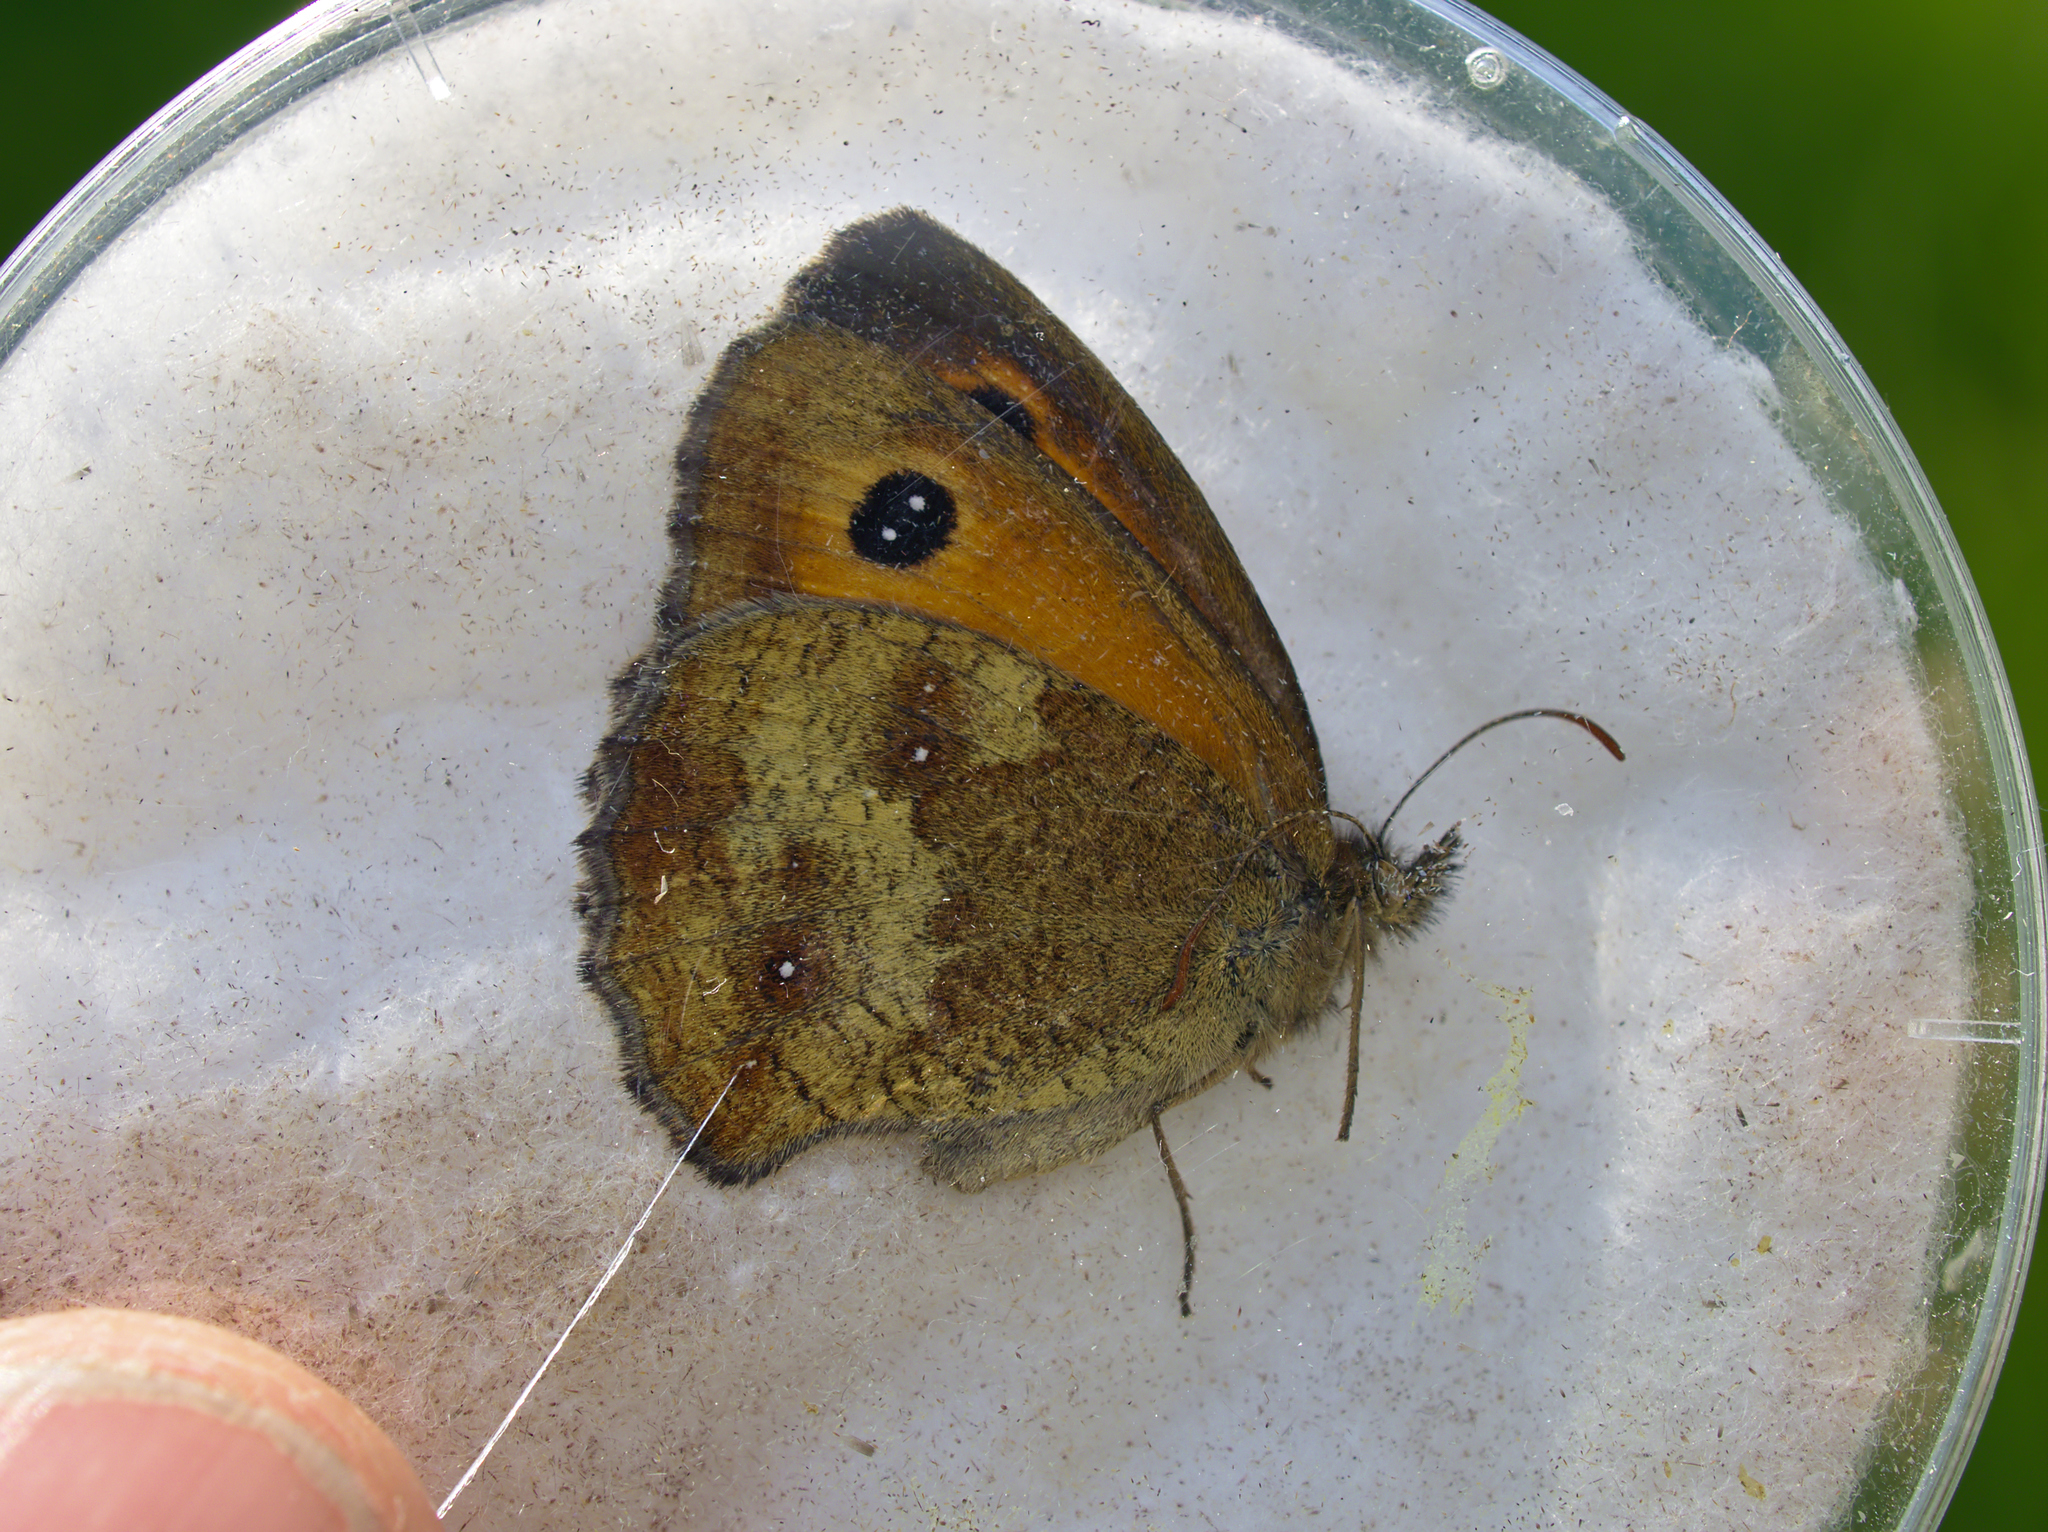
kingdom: Animalia
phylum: Arthropoda
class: Insecta
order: Lepidoptera
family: Nymphalidae
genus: Pyronia
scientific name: Pyronia tithonus
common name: Gatekeeper
